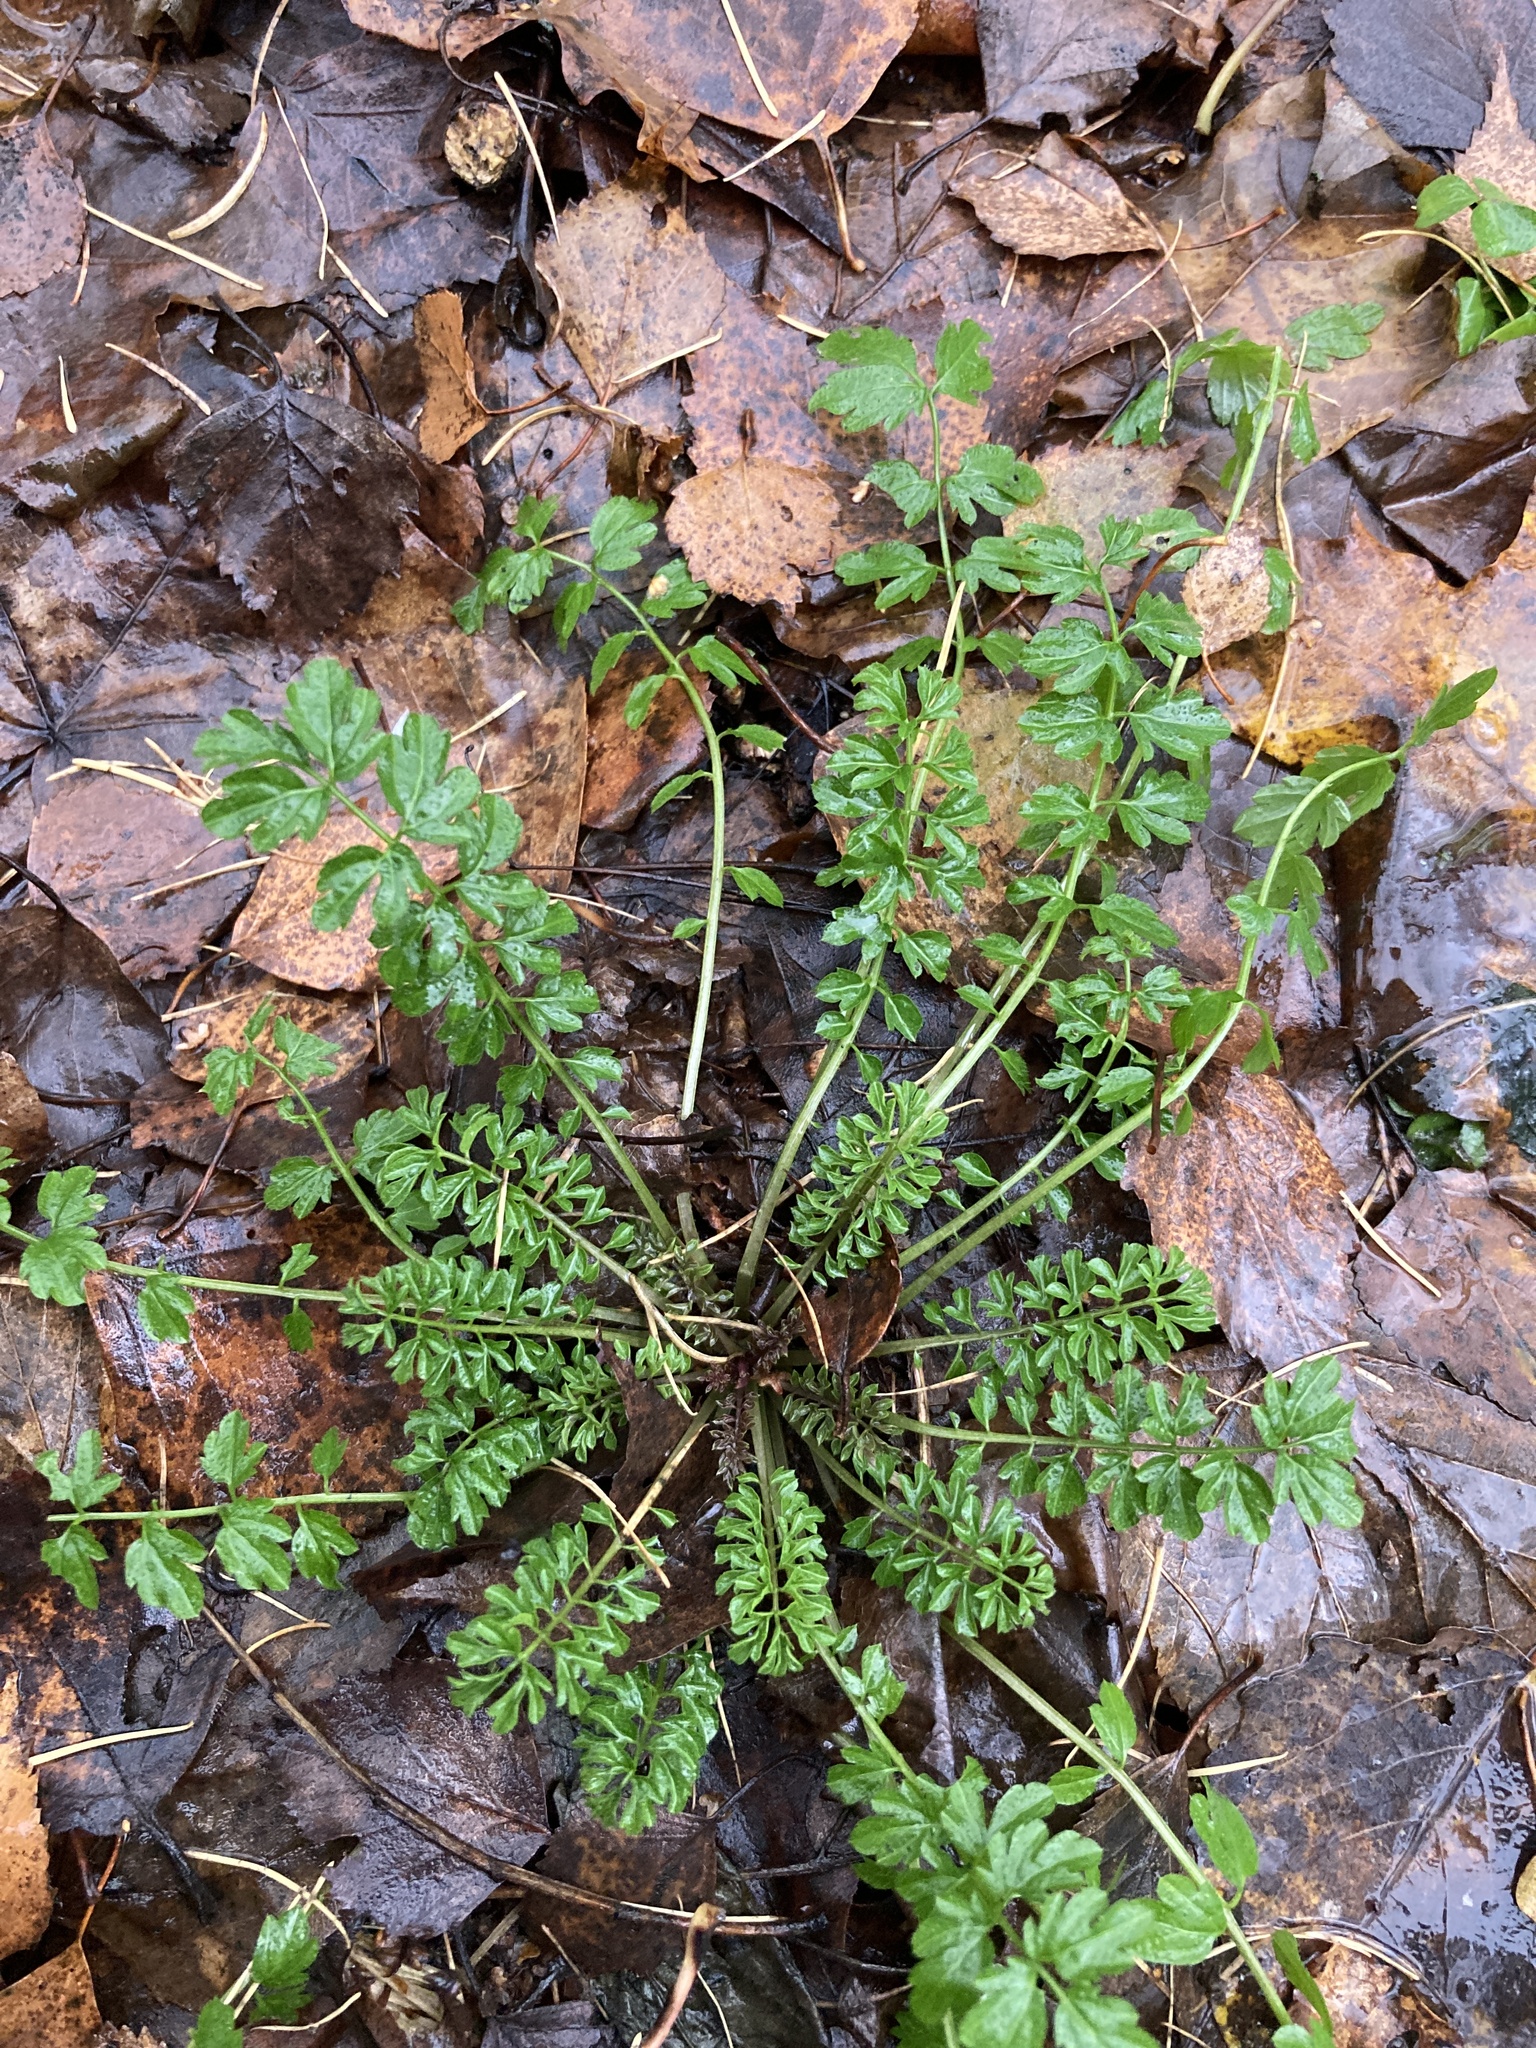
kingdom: Plantae
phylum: Tracheophyta
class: Magnoliopsida
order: Brassicales
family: Brassicaceae
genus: Cardamine
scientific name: Cardamine impatiens
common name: Narrow-leaved bitter-cress
